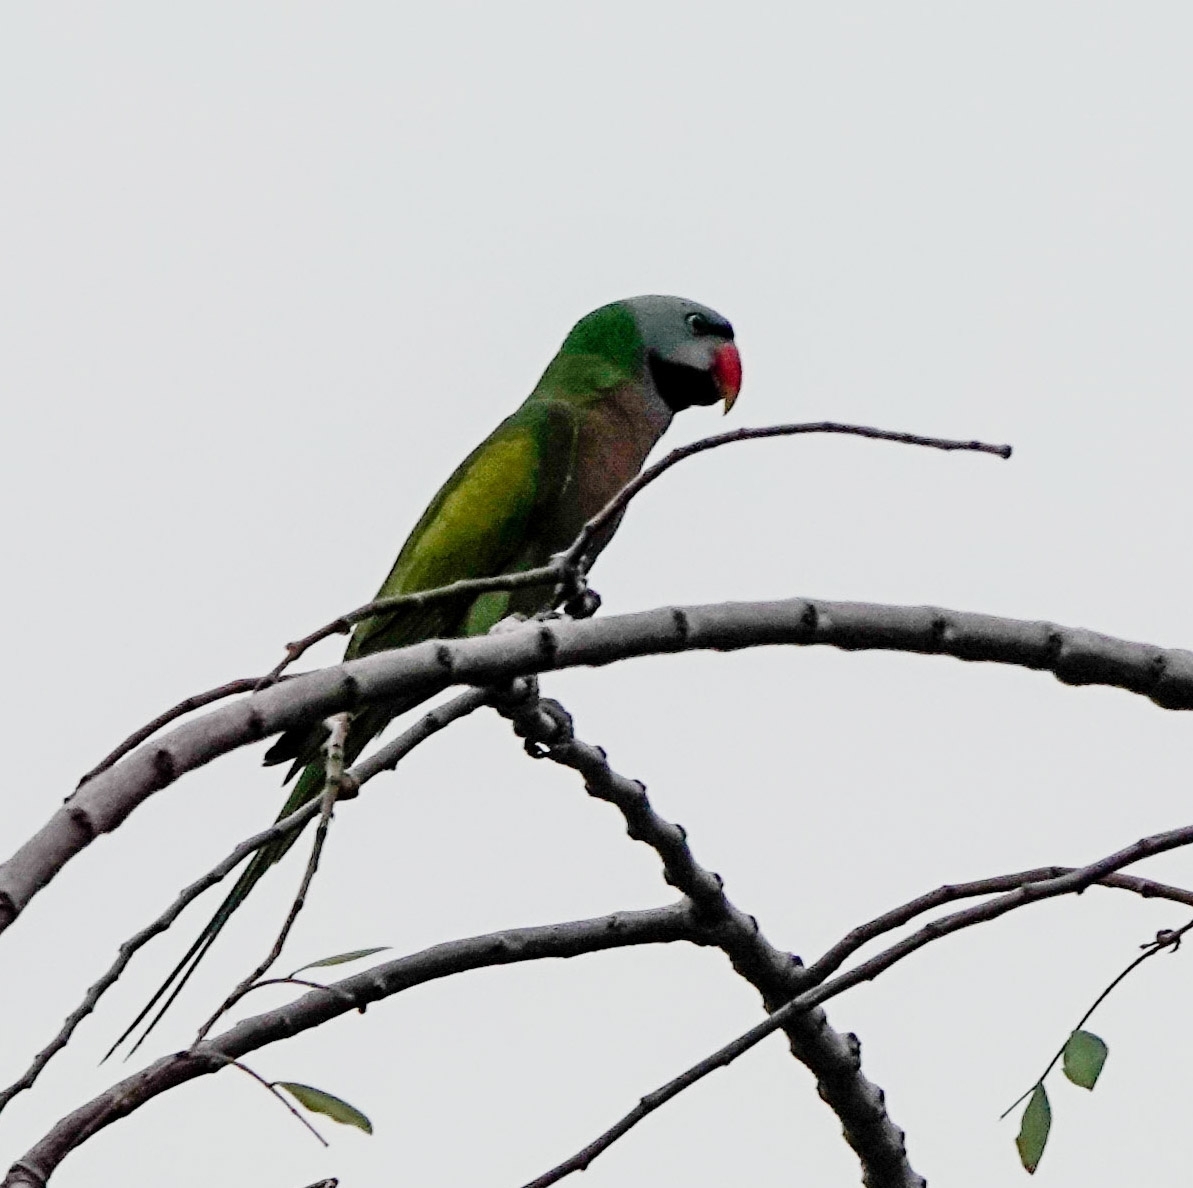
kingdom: Animalia
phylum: Chordata
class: Aves
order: Psittaciformes
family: Psittacidae
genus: Psittacula
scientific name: Psittacula alexandri
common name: Red-breasted parakeet
